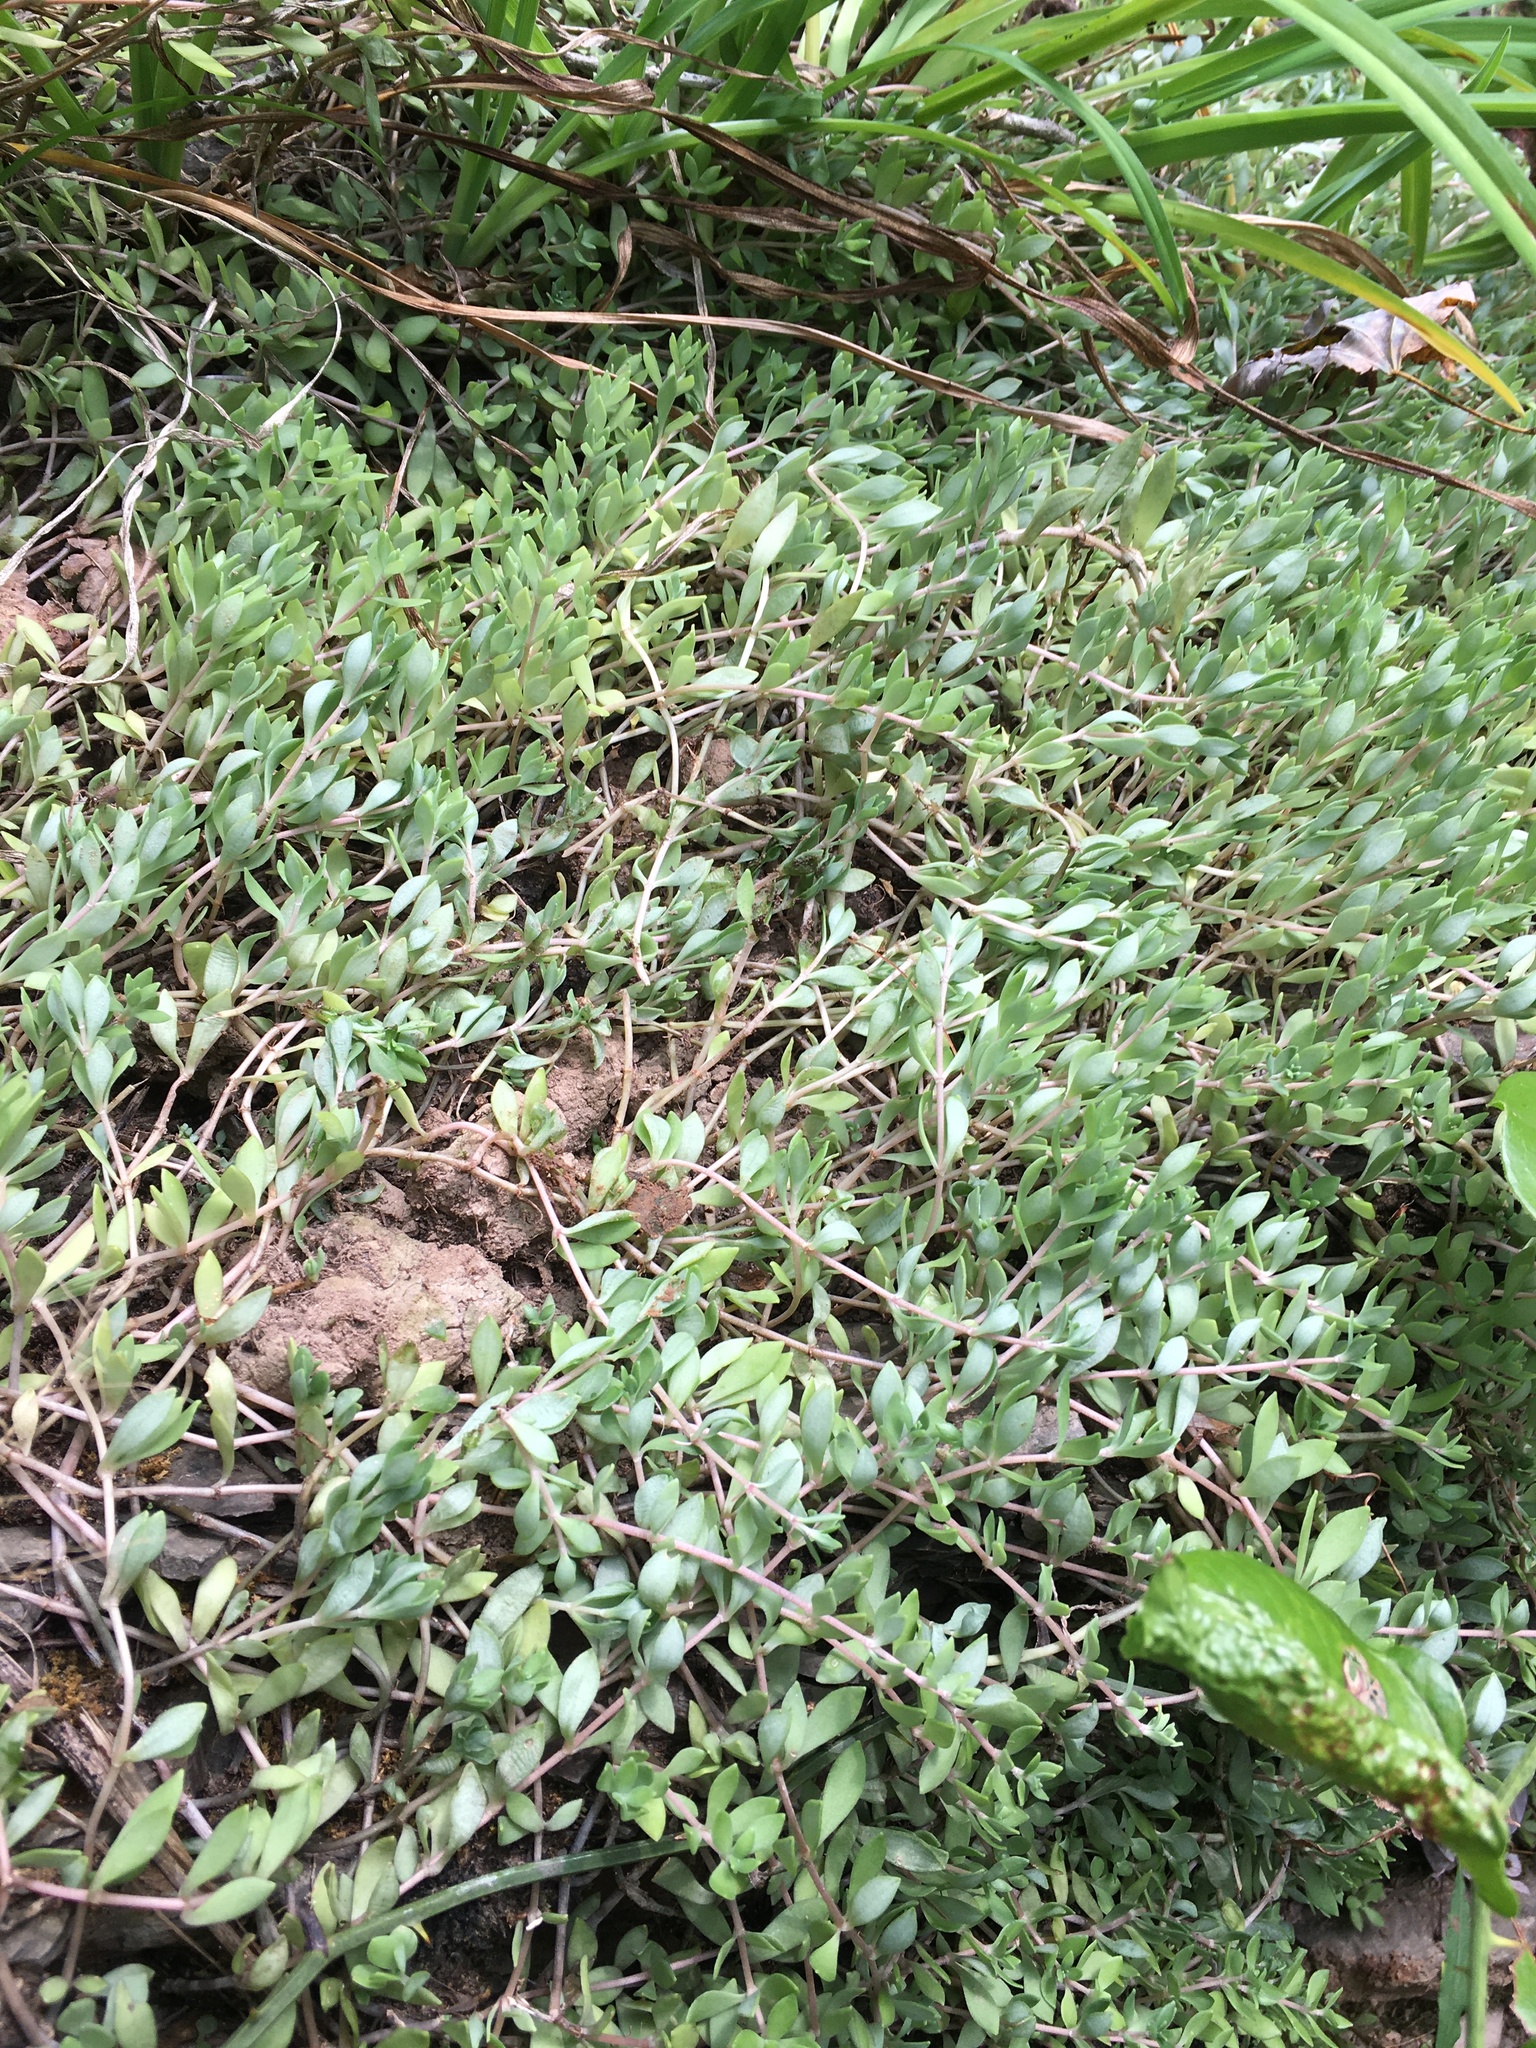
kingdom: Plantae
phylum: Tracheophyta
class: Magnoliopsida
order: Saxifragales
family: Crassulaceae
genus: Sedum
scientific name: Sedum sarmentosum
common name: Stringy stonecrop
